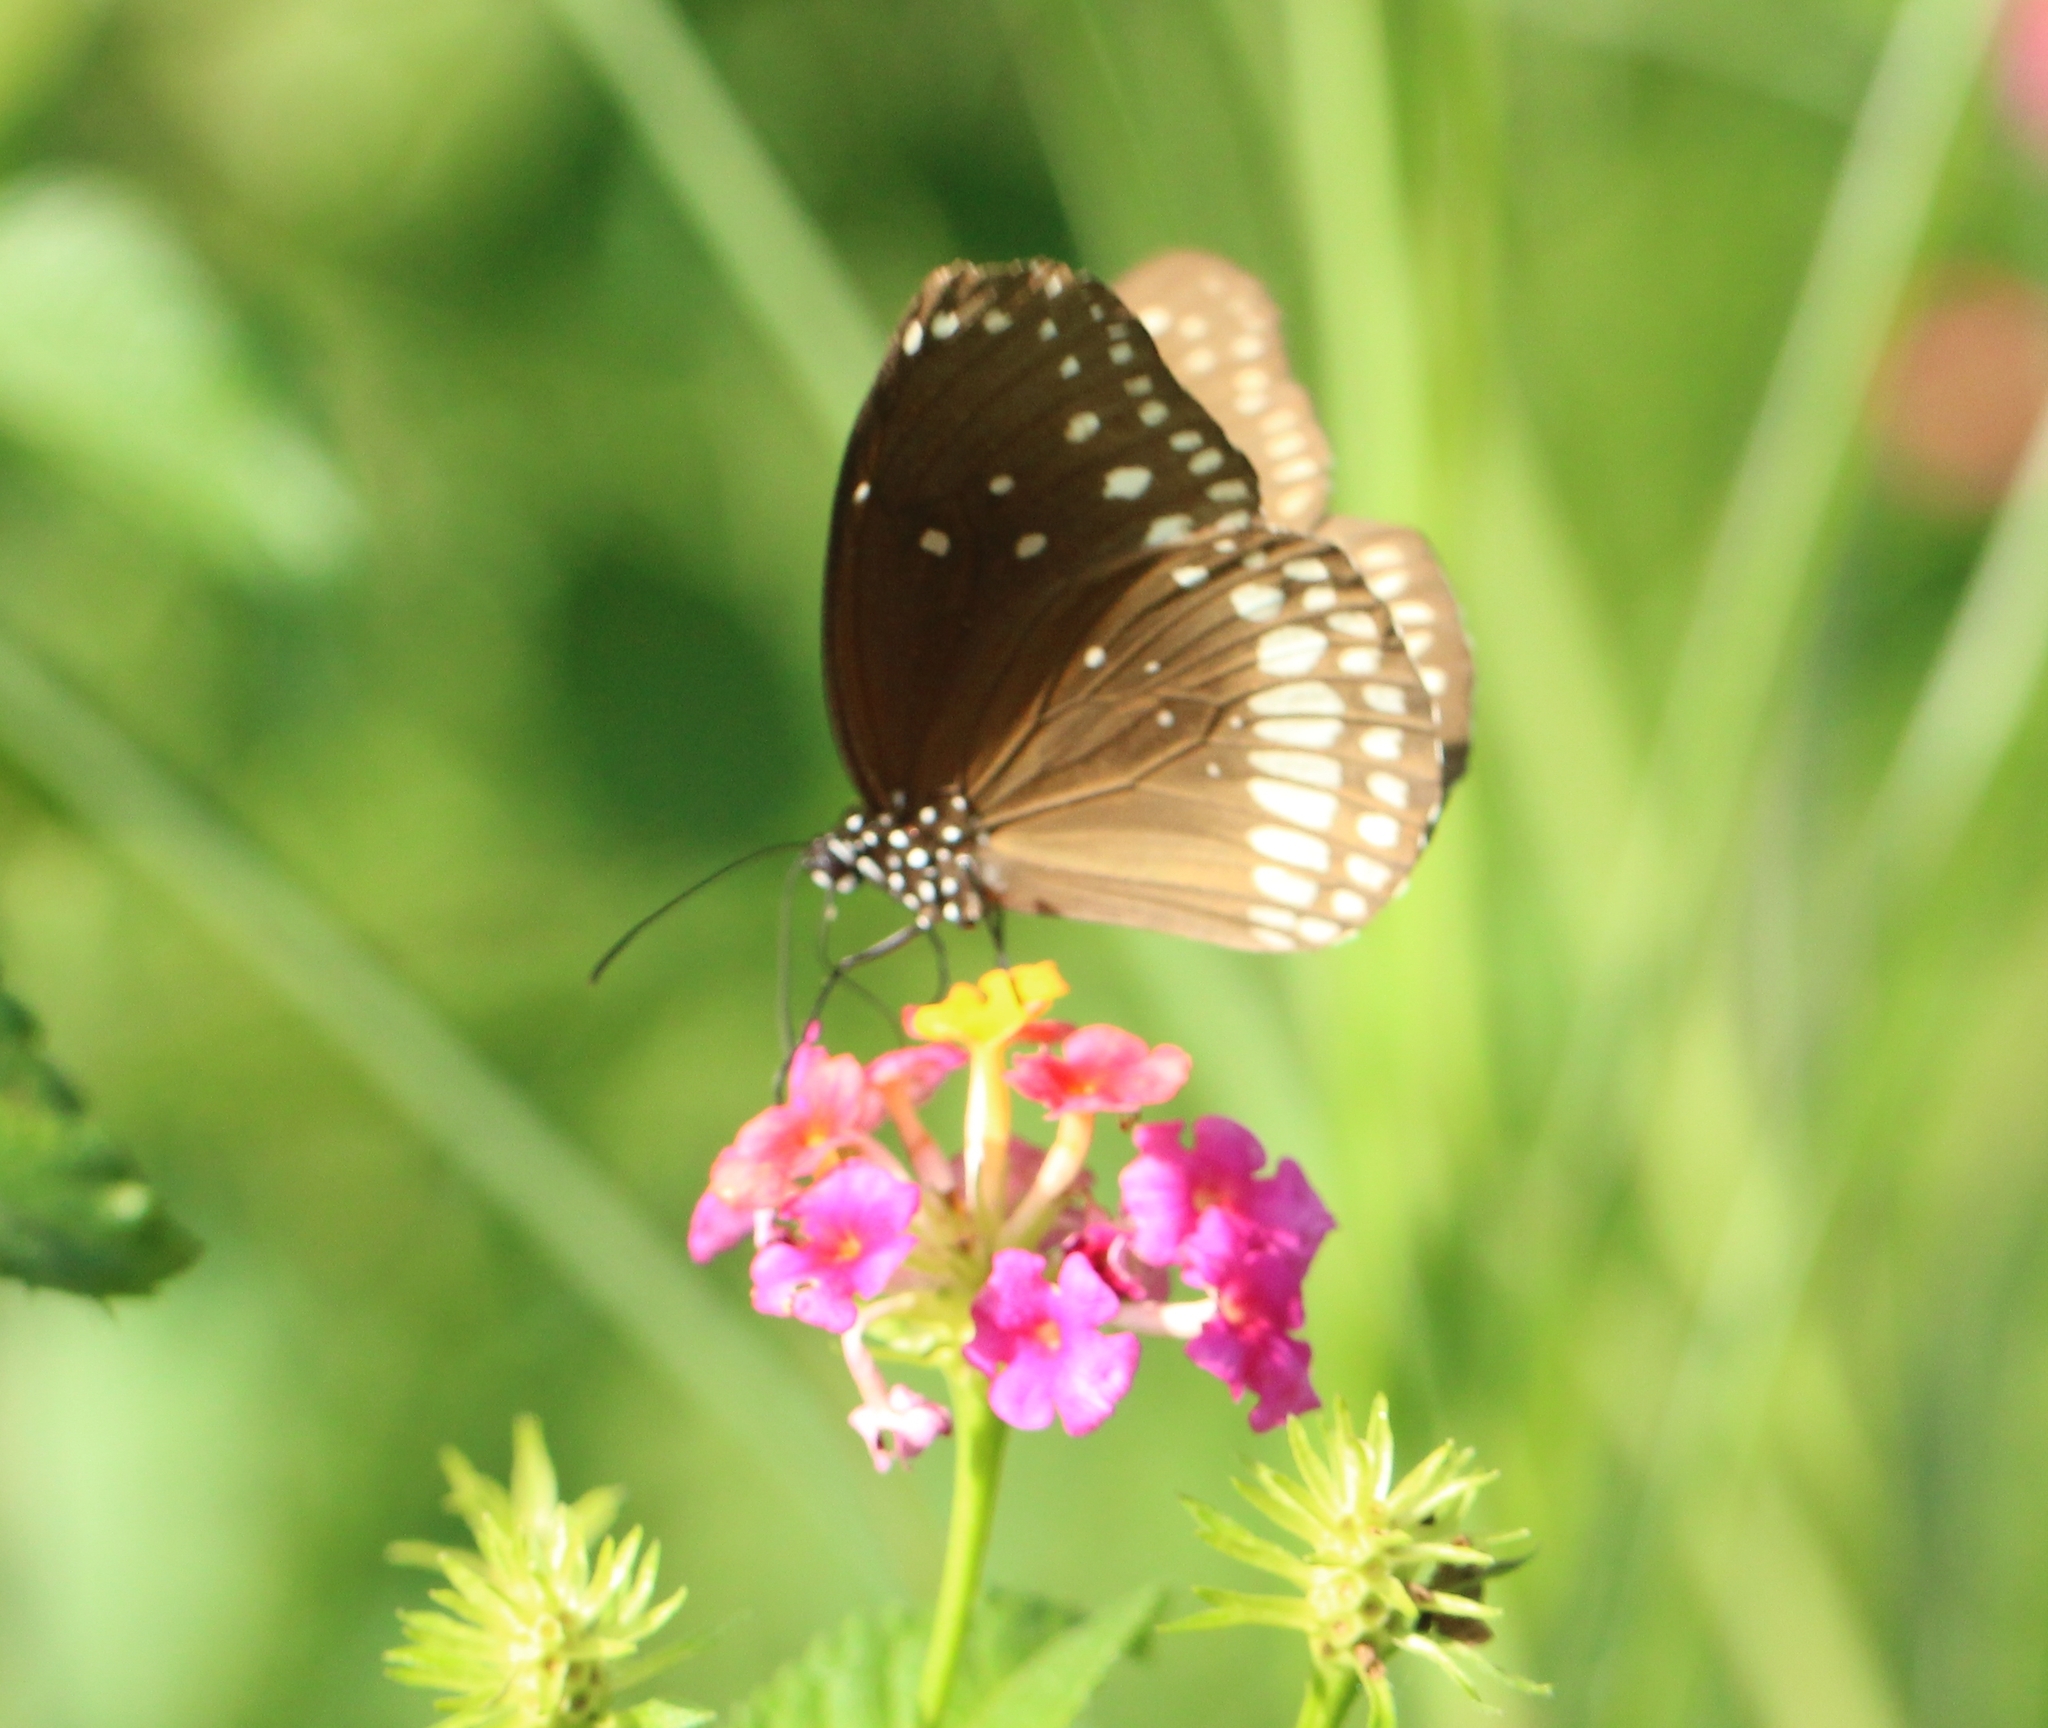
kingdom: Animalia
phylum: Arthropoda
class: Insecta
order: Lepidoptera
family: Nymphalidae
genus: Euploea
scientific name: Euploea core
